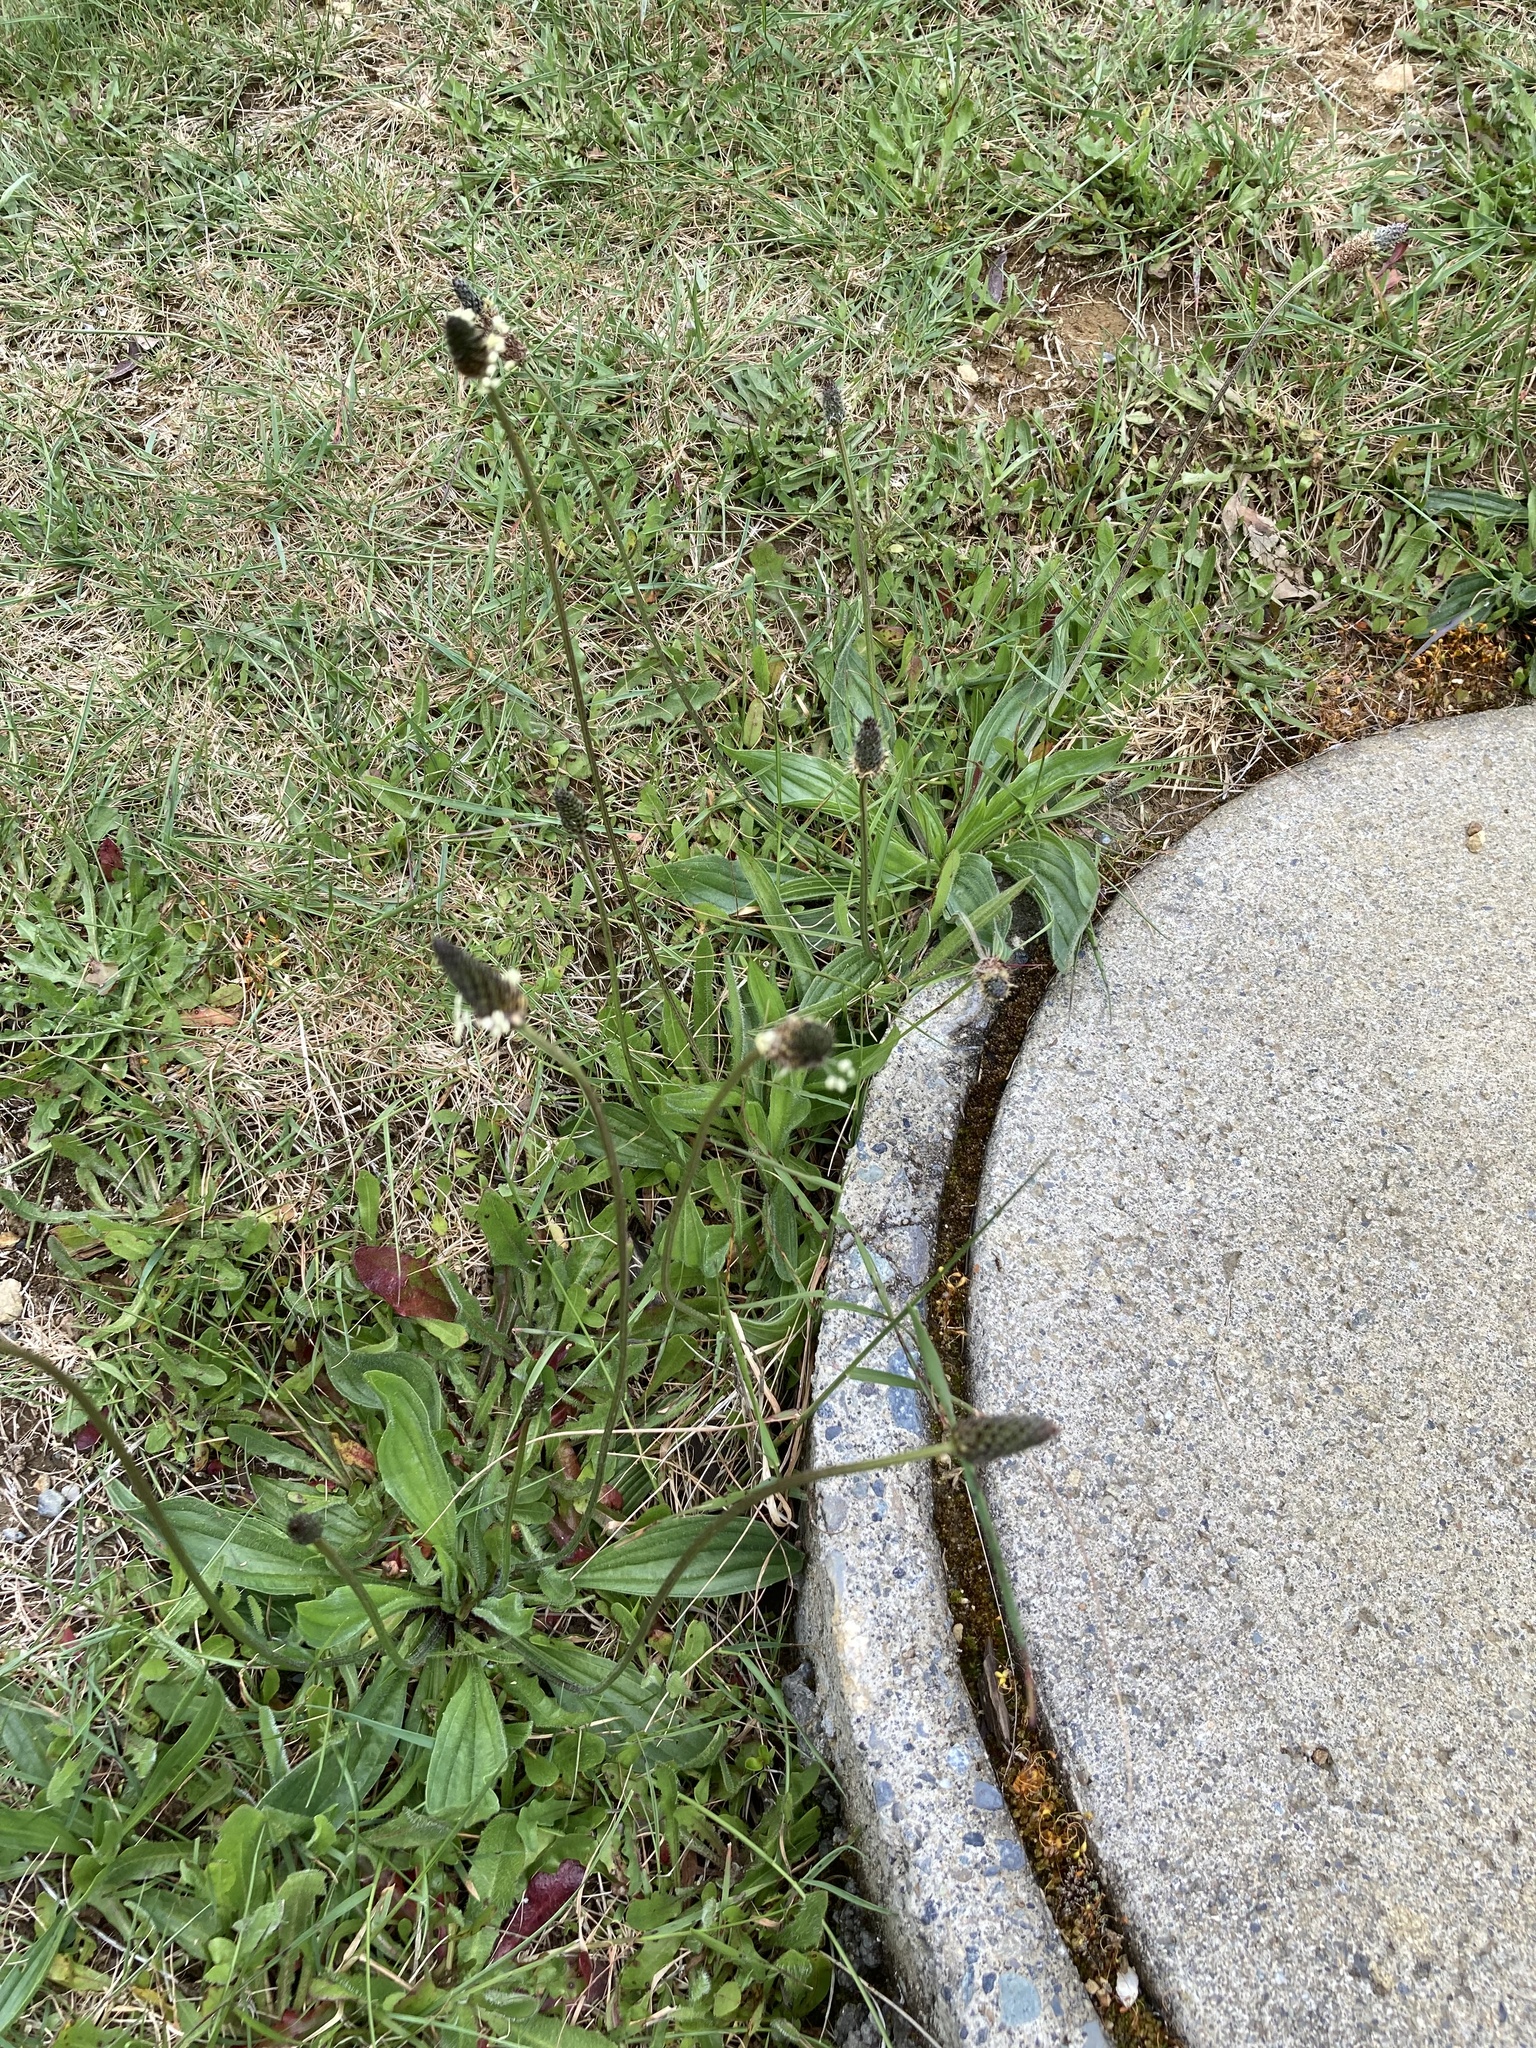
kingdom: Plantae
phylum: Tracheophyta
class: Magnoliopsida
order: Lamiales
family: Plantaginaceae
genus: Plantago
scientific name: Plantago lanceolata
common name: Ribwort plantain
